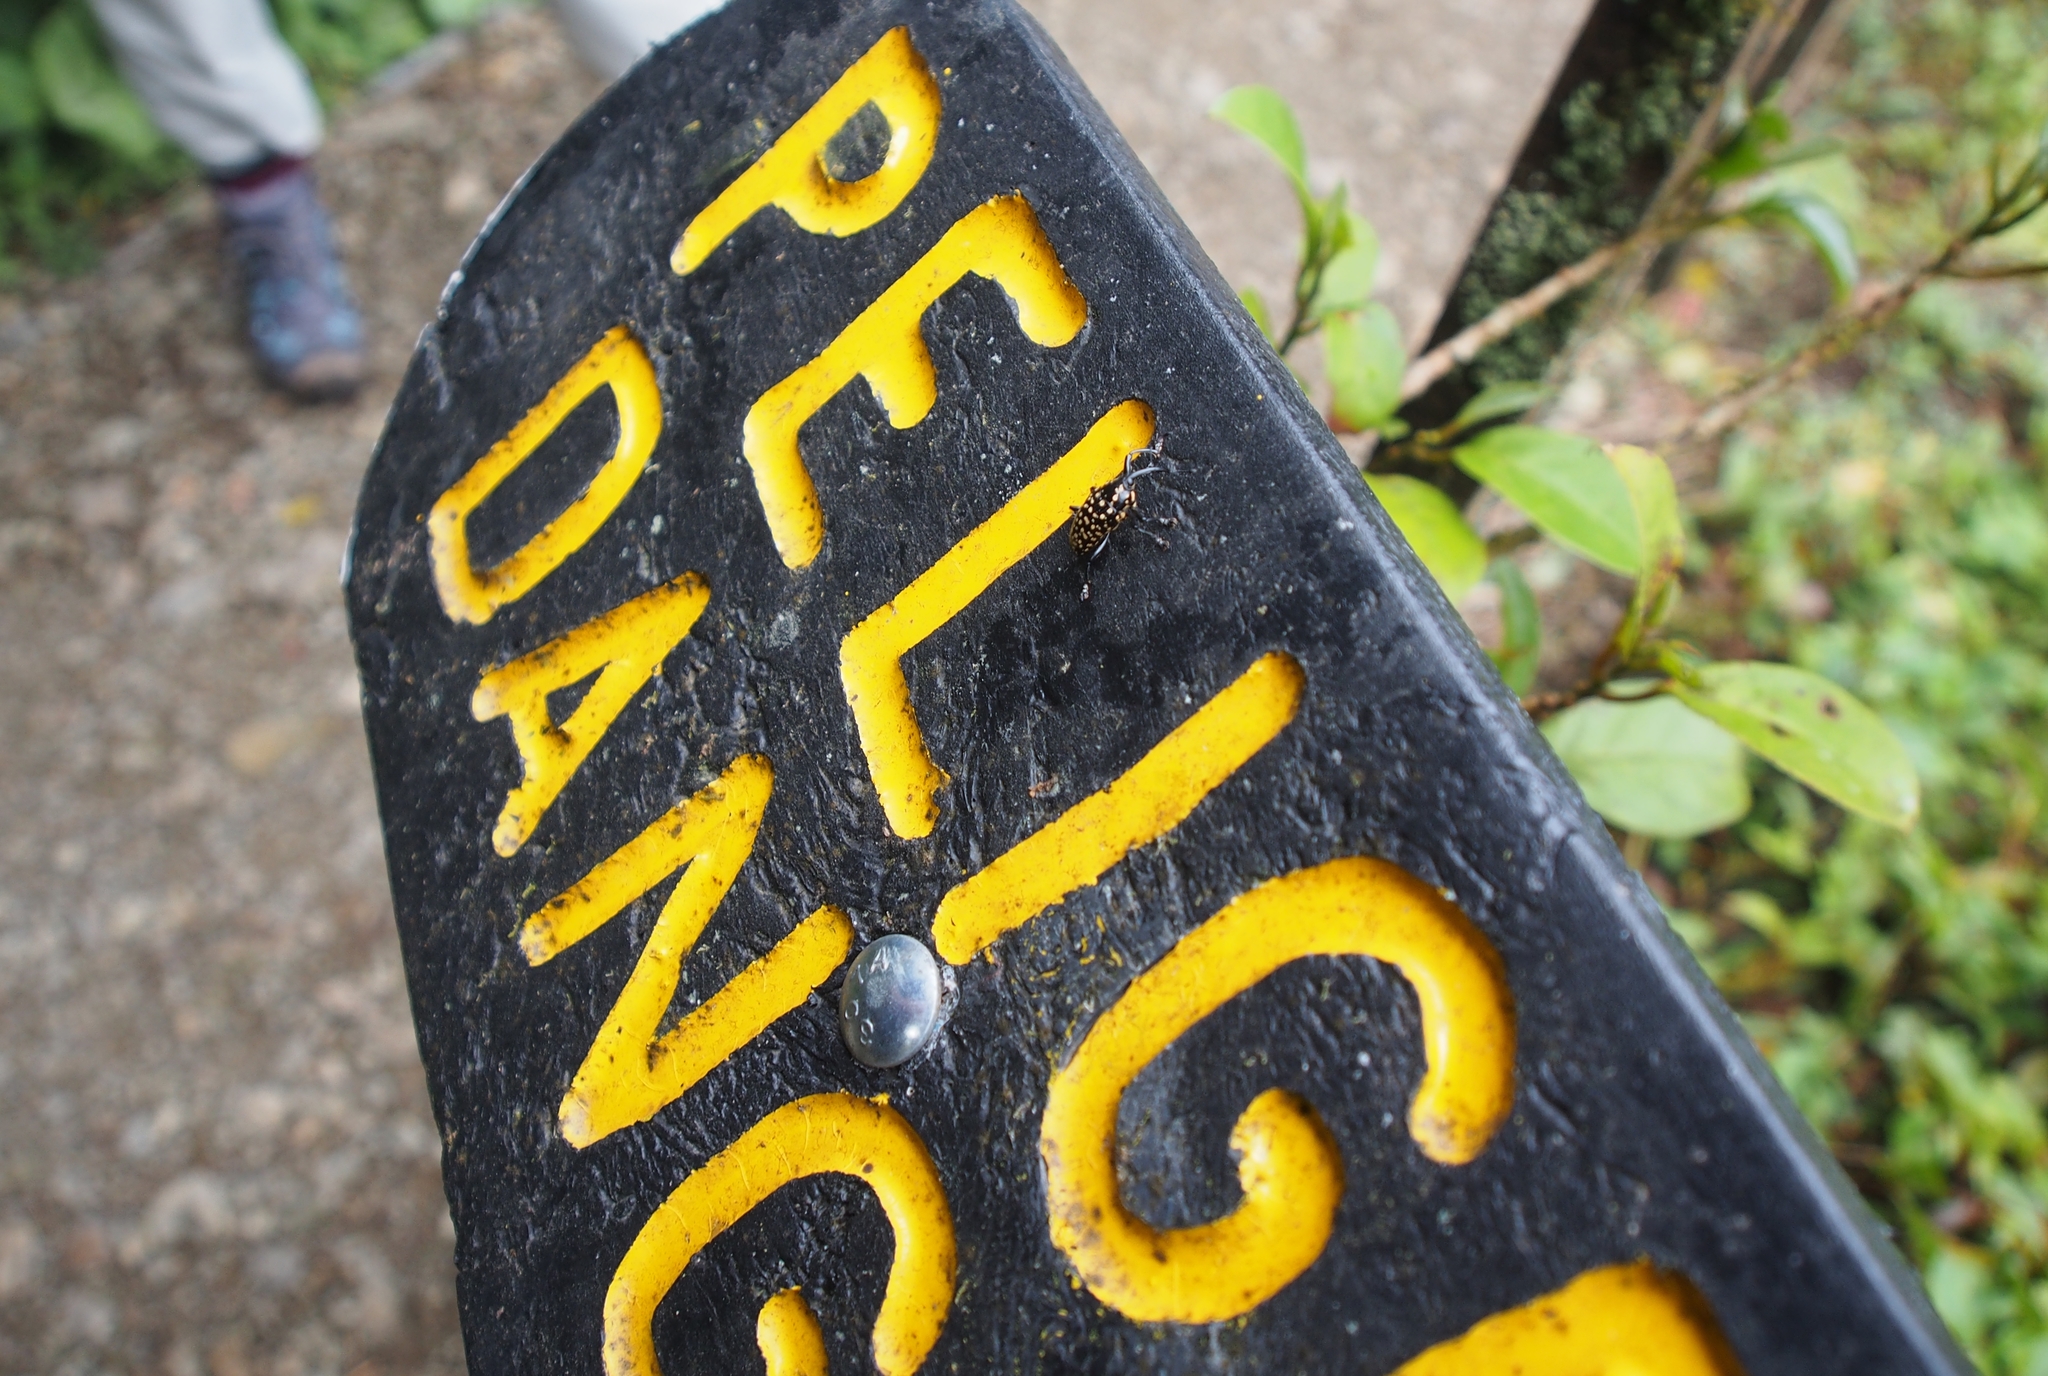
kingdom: Animalia
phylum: Arthropoda
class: Insecta
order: Coleoptera
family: Curculionidae
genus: Cholus
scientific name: Cholus foveolatus
